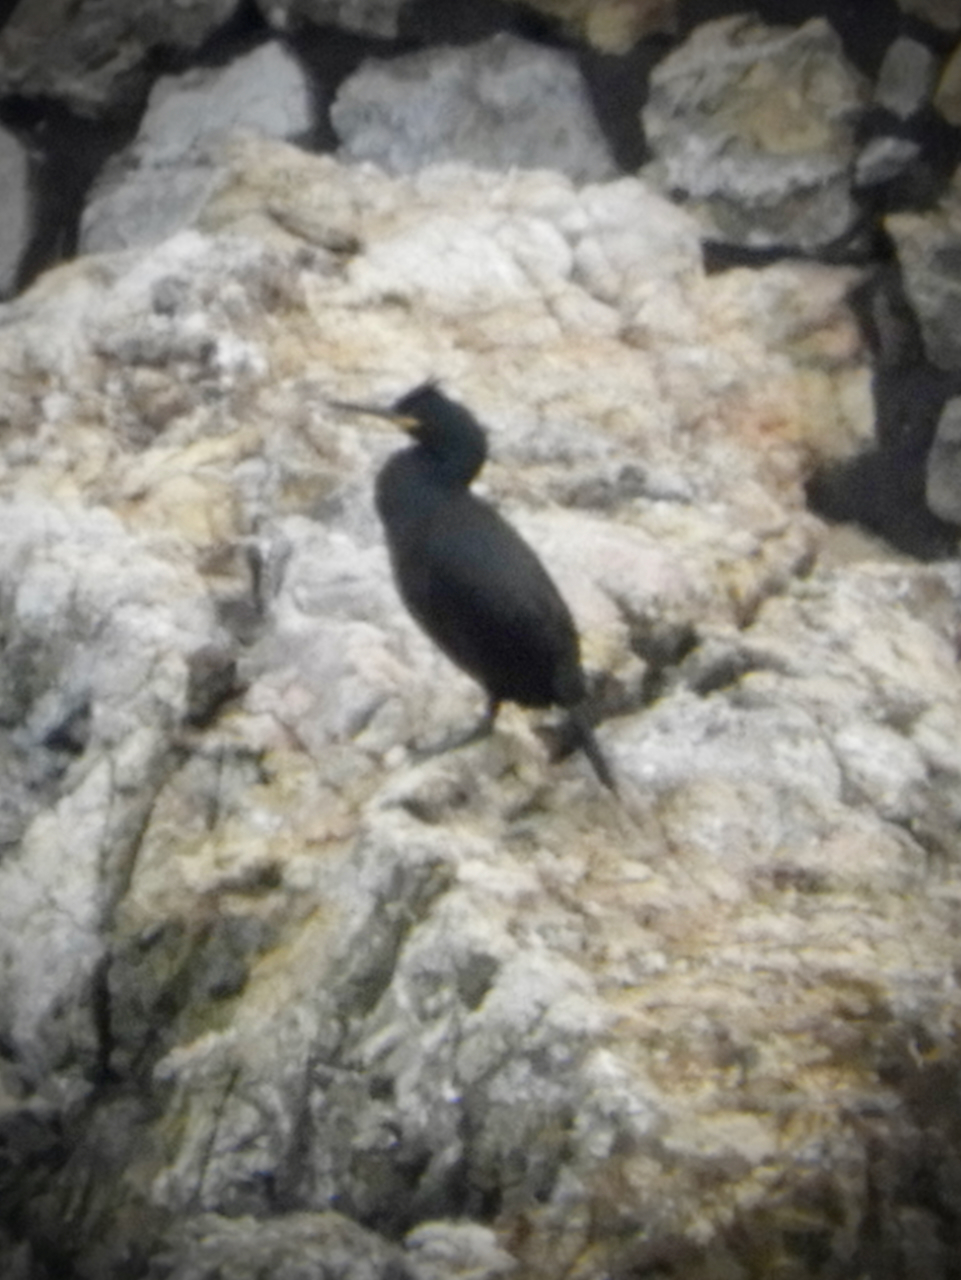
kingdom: Animalia
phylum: Chordata
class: Aves
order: Suliformes
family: Phalacrocoracidae
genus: Phalacrocorax
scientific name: Phalacrocorax aristotelis
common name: European shag
